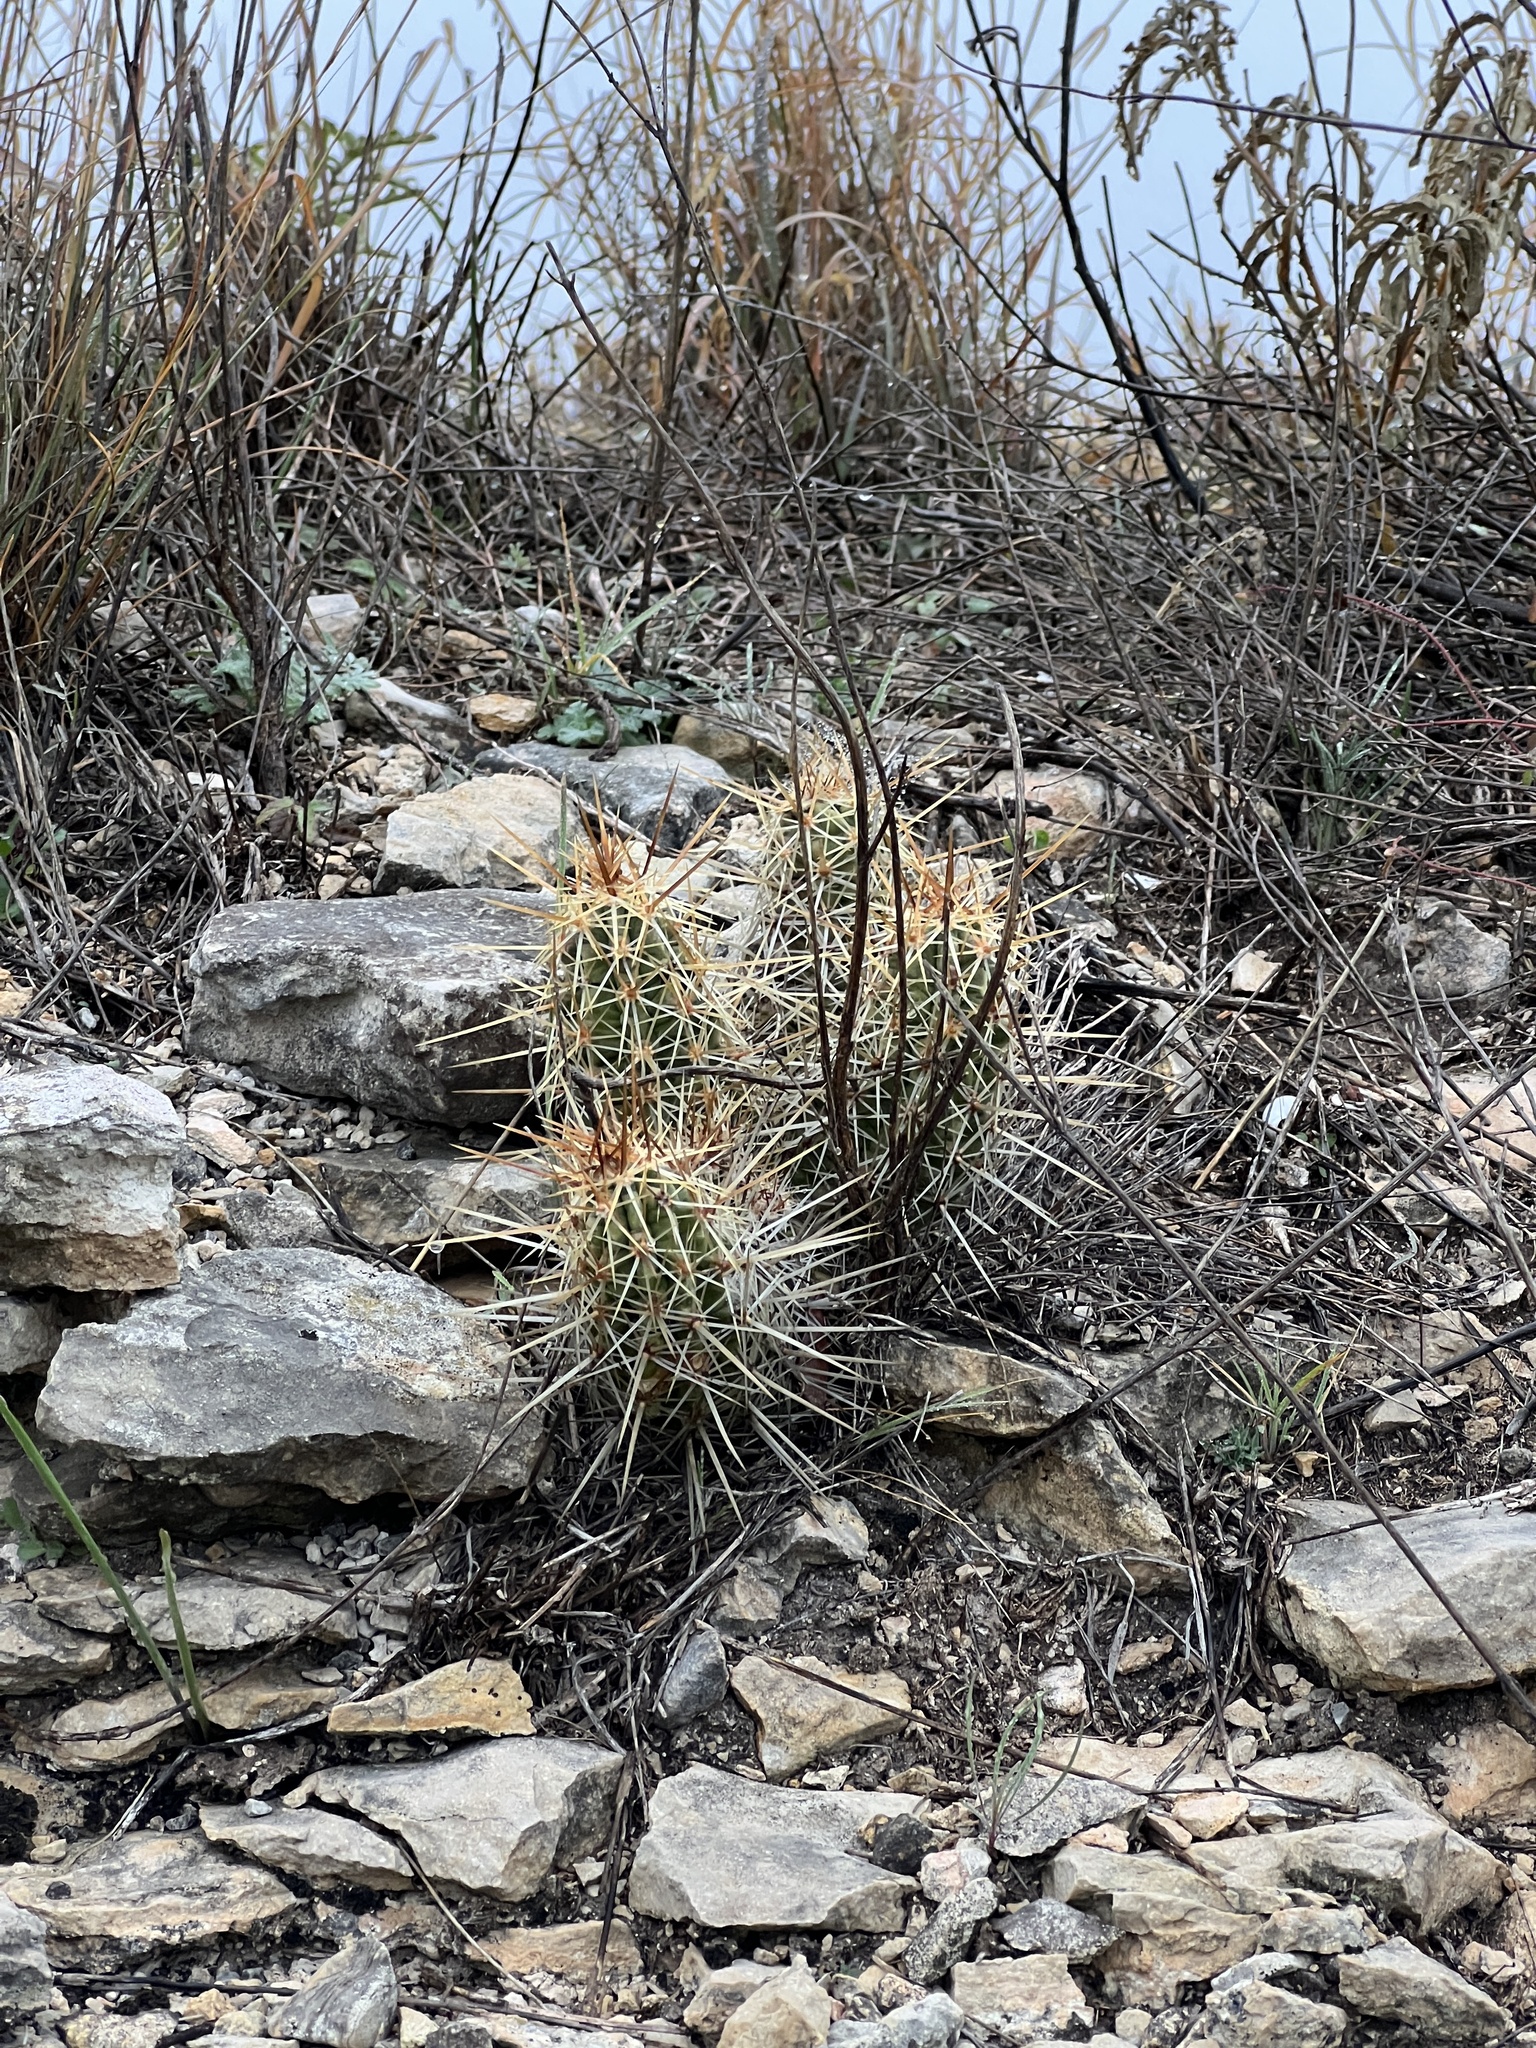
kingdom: Plantae
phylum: Tracheophyta
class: Magnoliopsida
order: Caryophyllales
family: Cactaceae
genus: Echinocereus
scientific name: Echinocereus enneacanthus
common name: Pitaya
